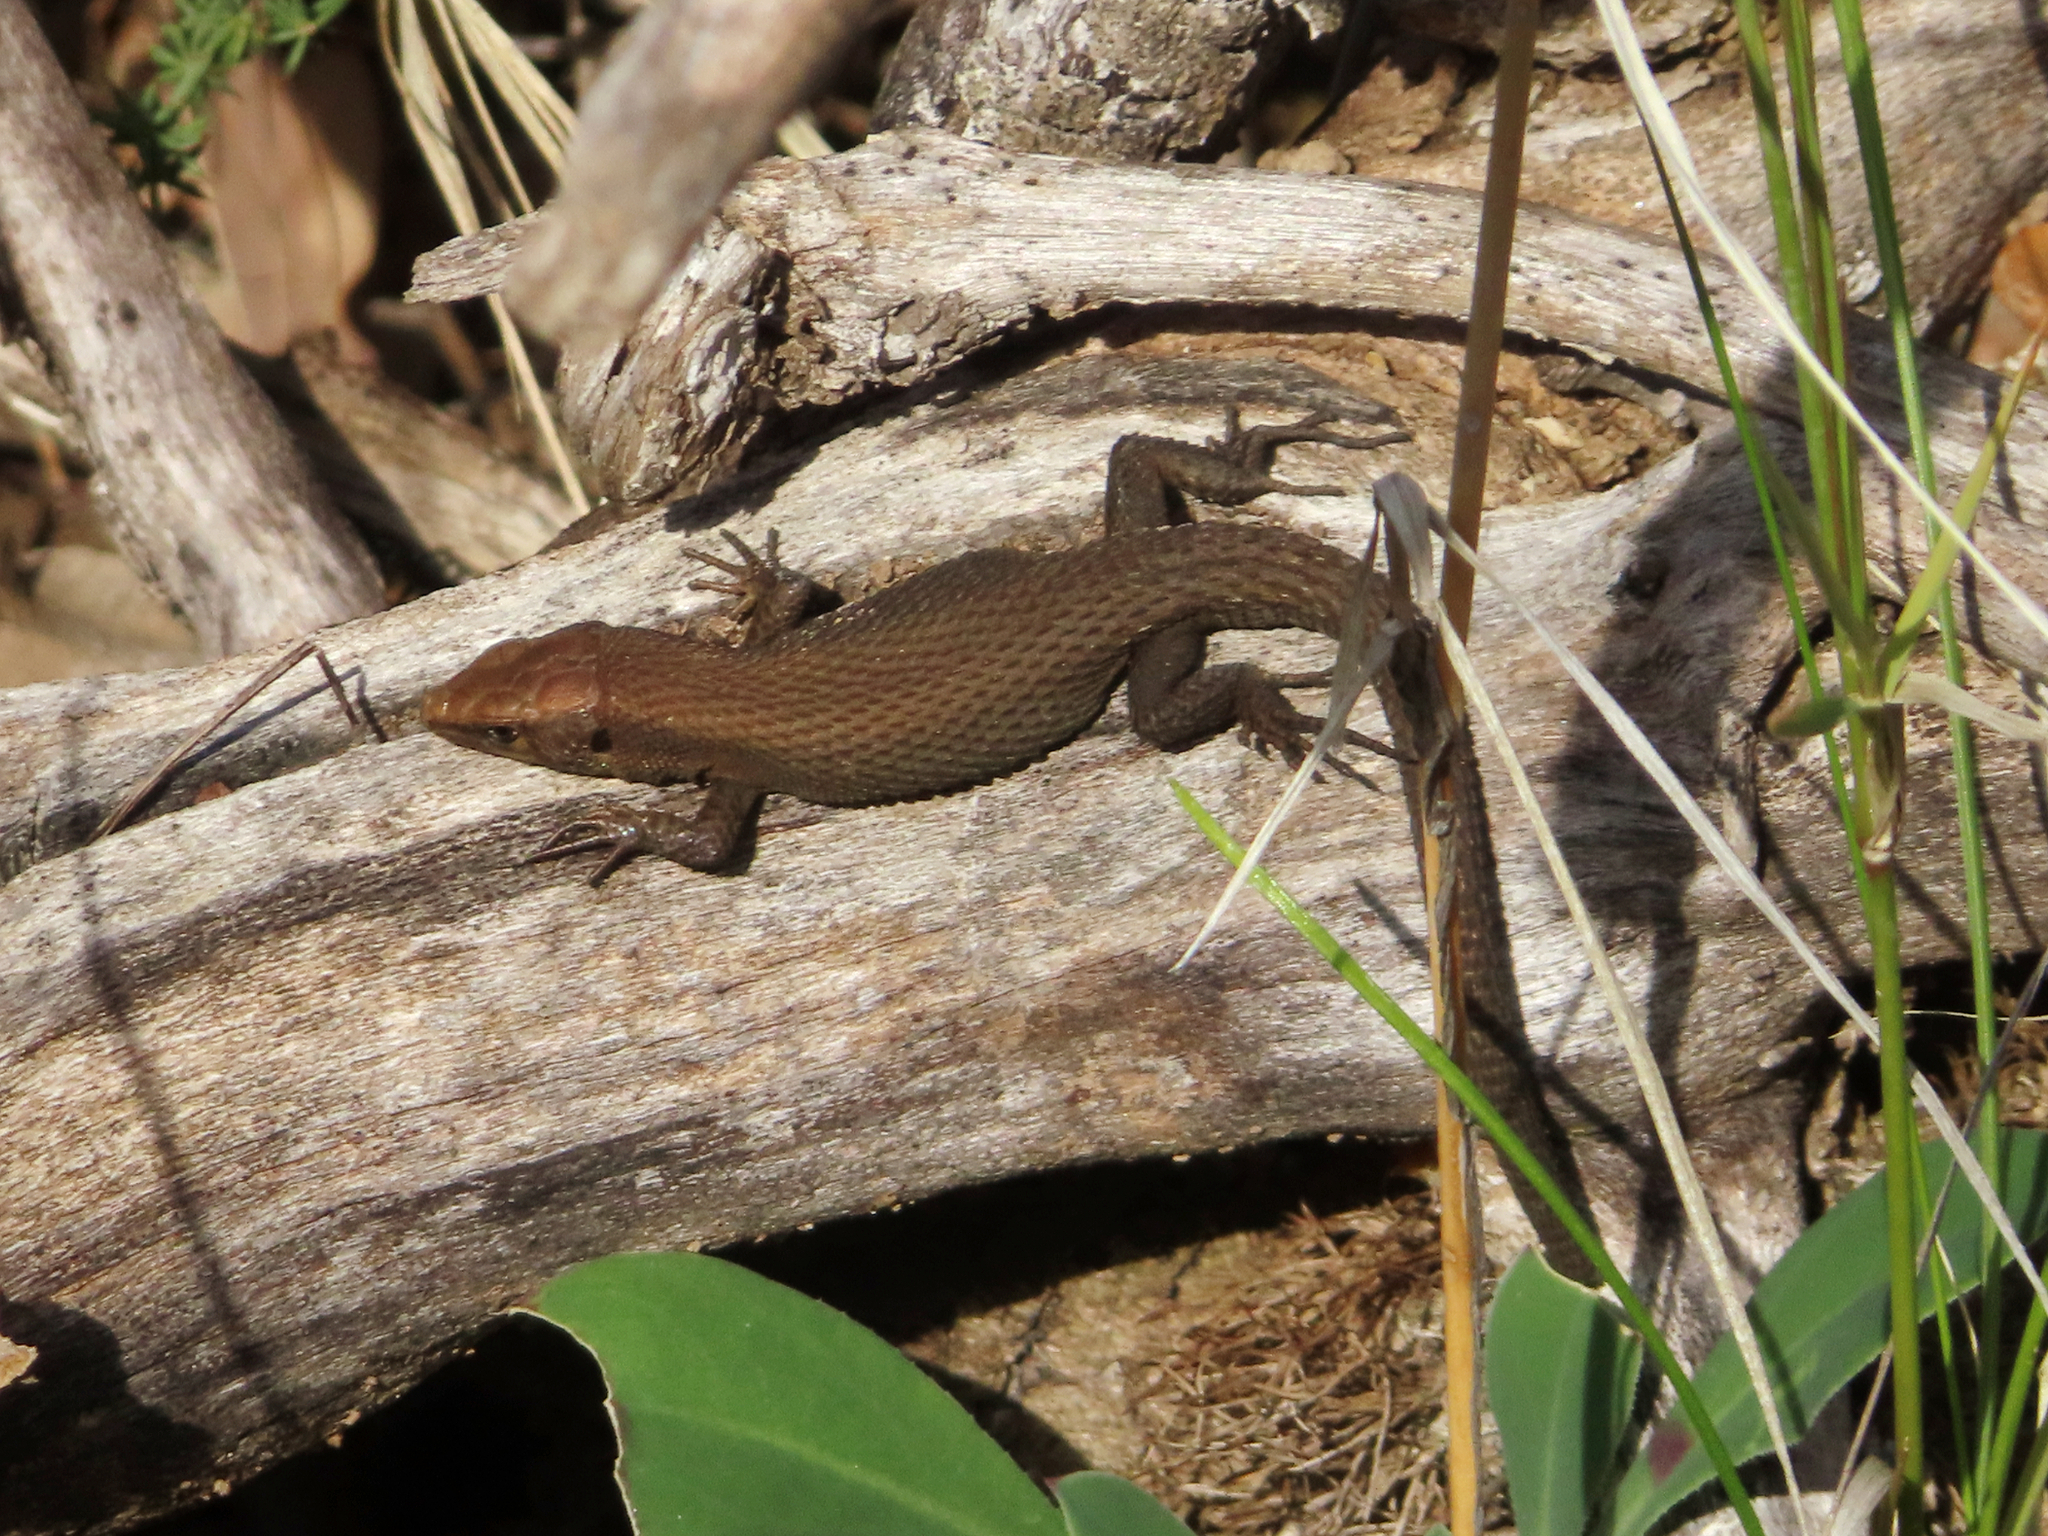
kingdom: Animalia
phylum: Chordata
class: Squamata
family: Lacertidae
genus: Algyroides
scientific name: Algyroides moreoticus
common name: Greek algyroides
